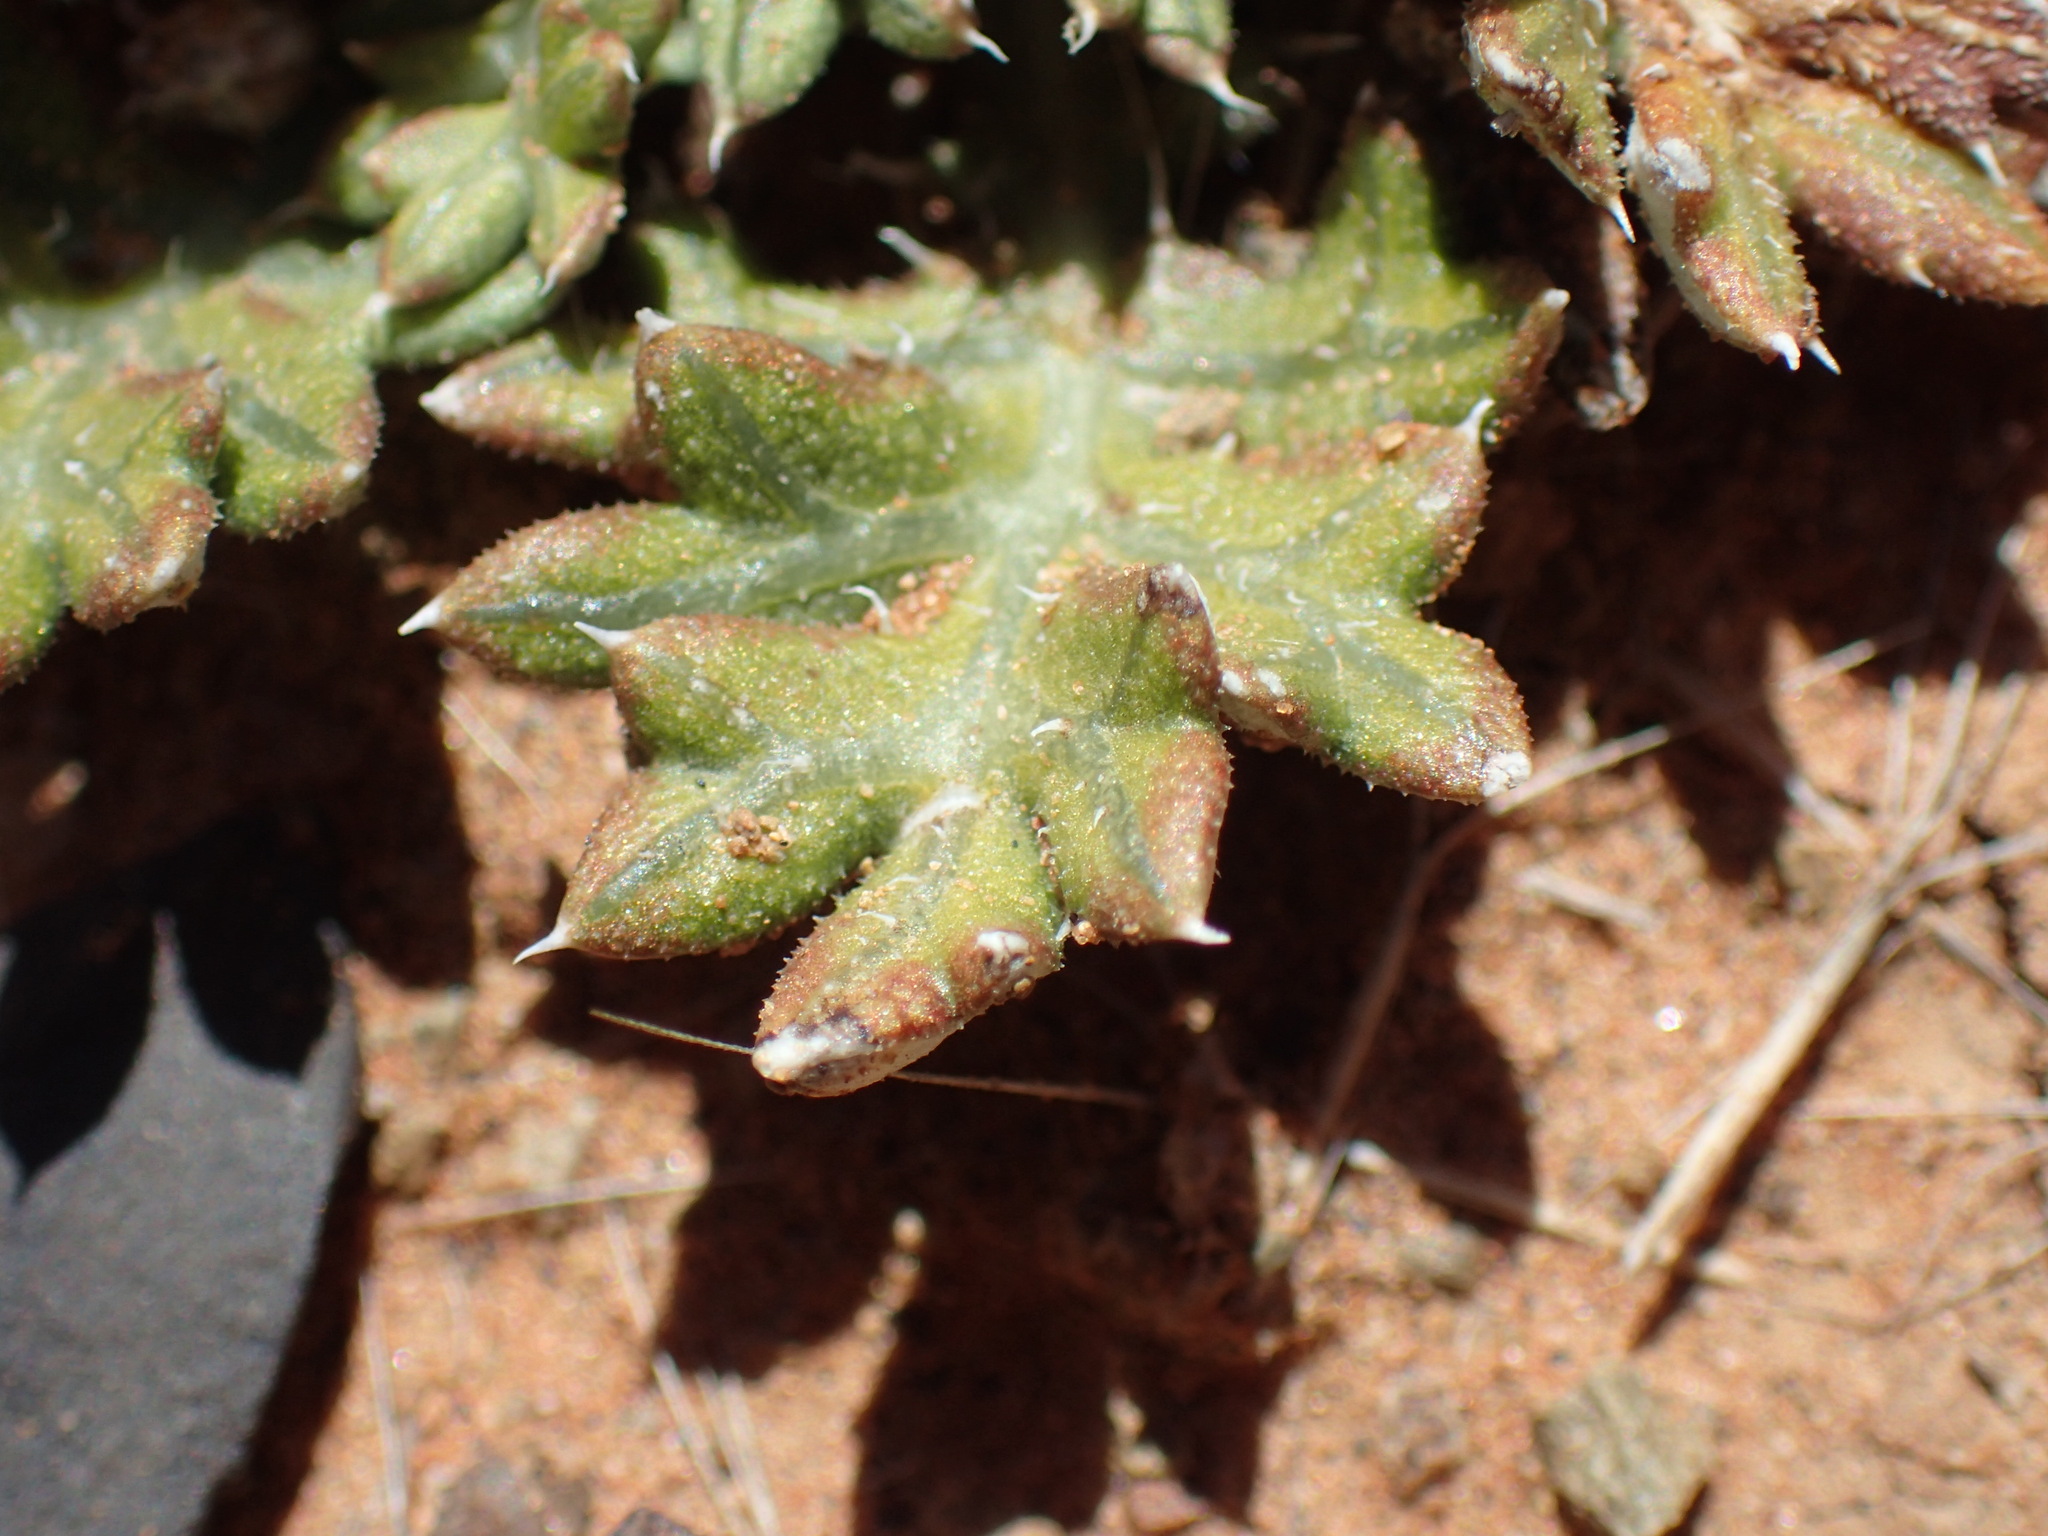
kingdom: Plantae
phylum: Tracheophyta
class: Magnoliopsida
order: Asterales
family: Asteraceae
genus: Gazania
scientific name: Gazania jurineifolia
